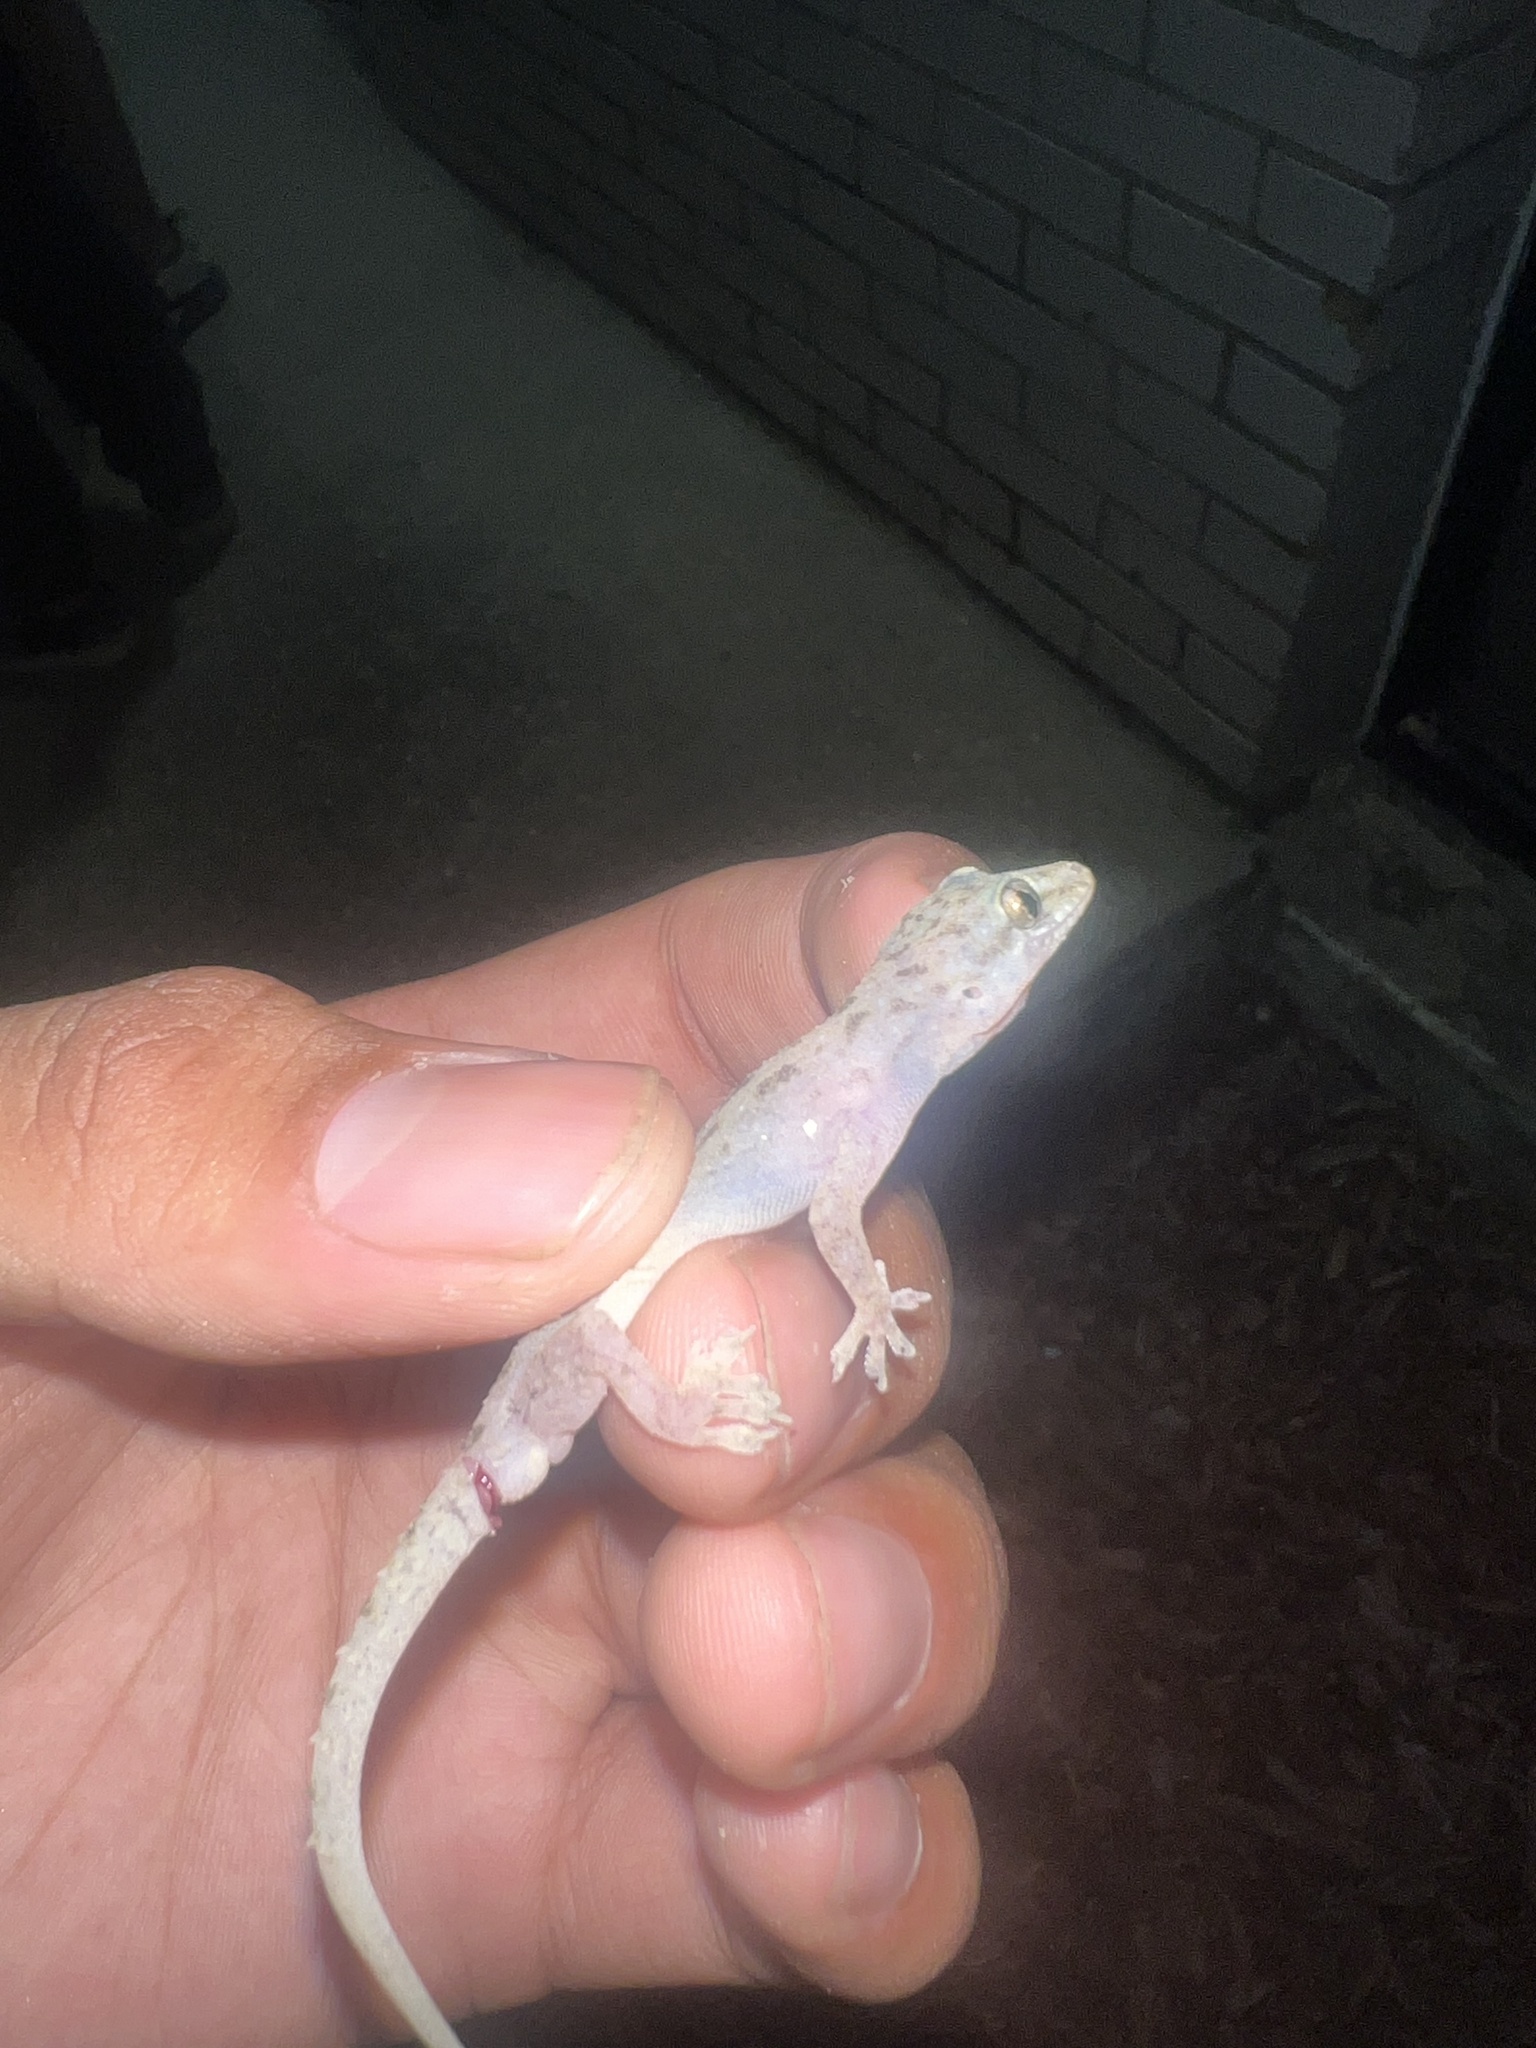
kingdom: Animalia
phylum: Chordata
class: Squamata
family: Gekkonidae
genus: Hemidactylus
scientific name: Hemidactylus parvimaculatus
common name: Spotted house gecko
